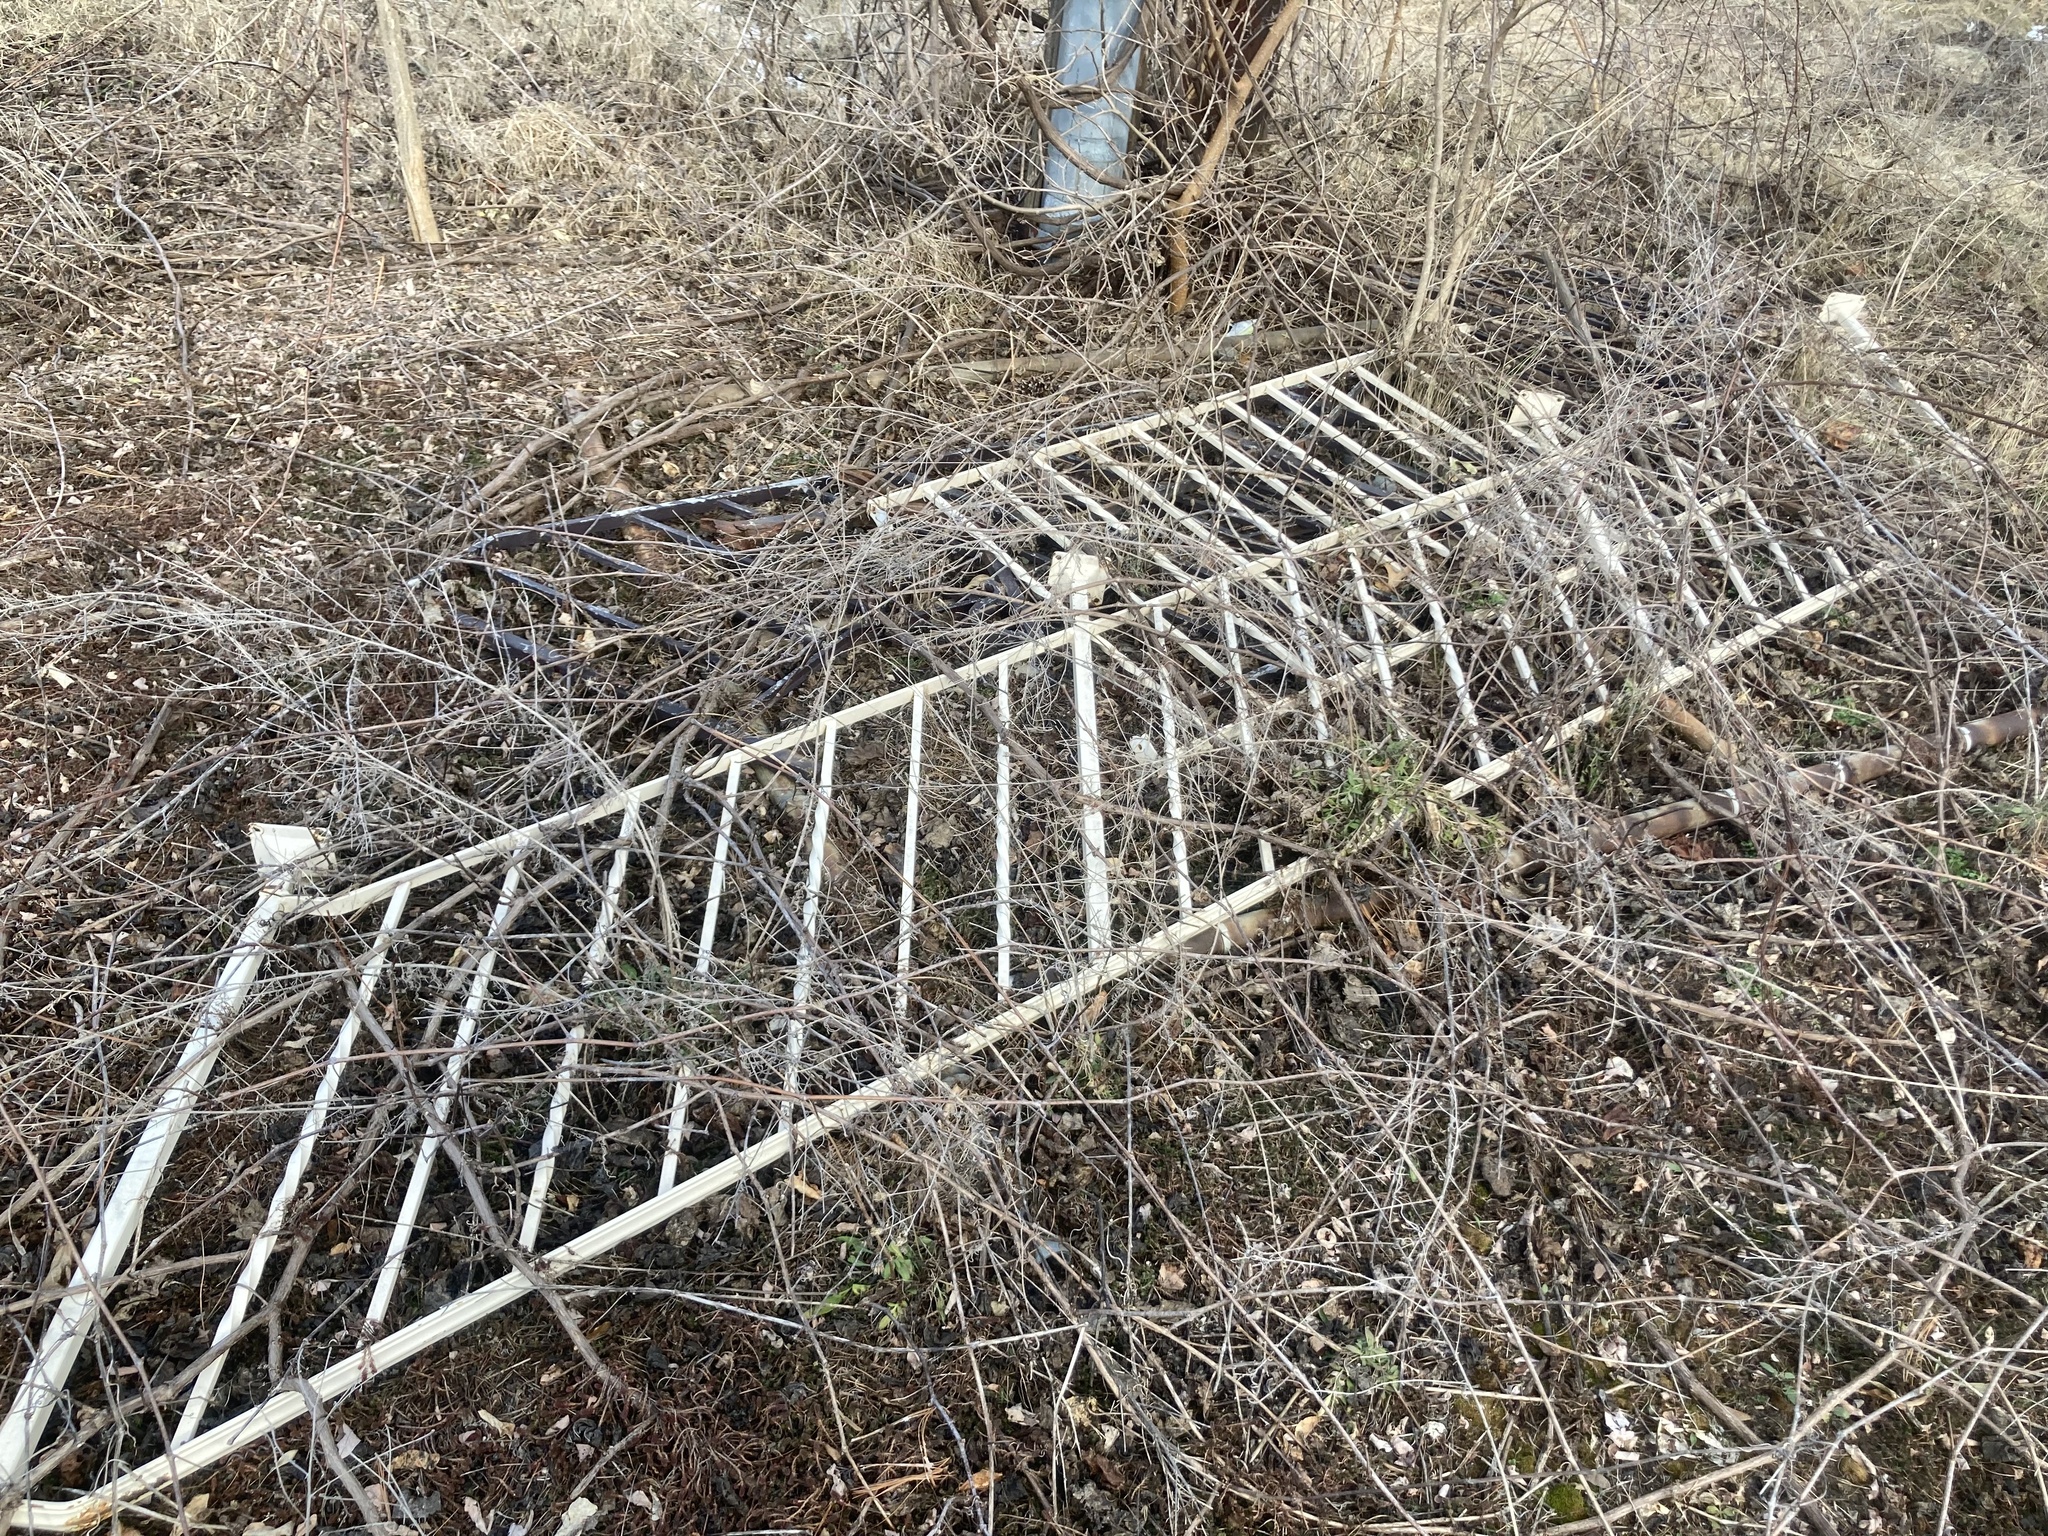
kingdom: Plantae
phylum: Tracheophyta
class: Magnoliopsida
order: Asterales
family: Asteraceae
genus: Centaurea
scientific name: Centaurea stoebe
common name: Spotted knapweed
